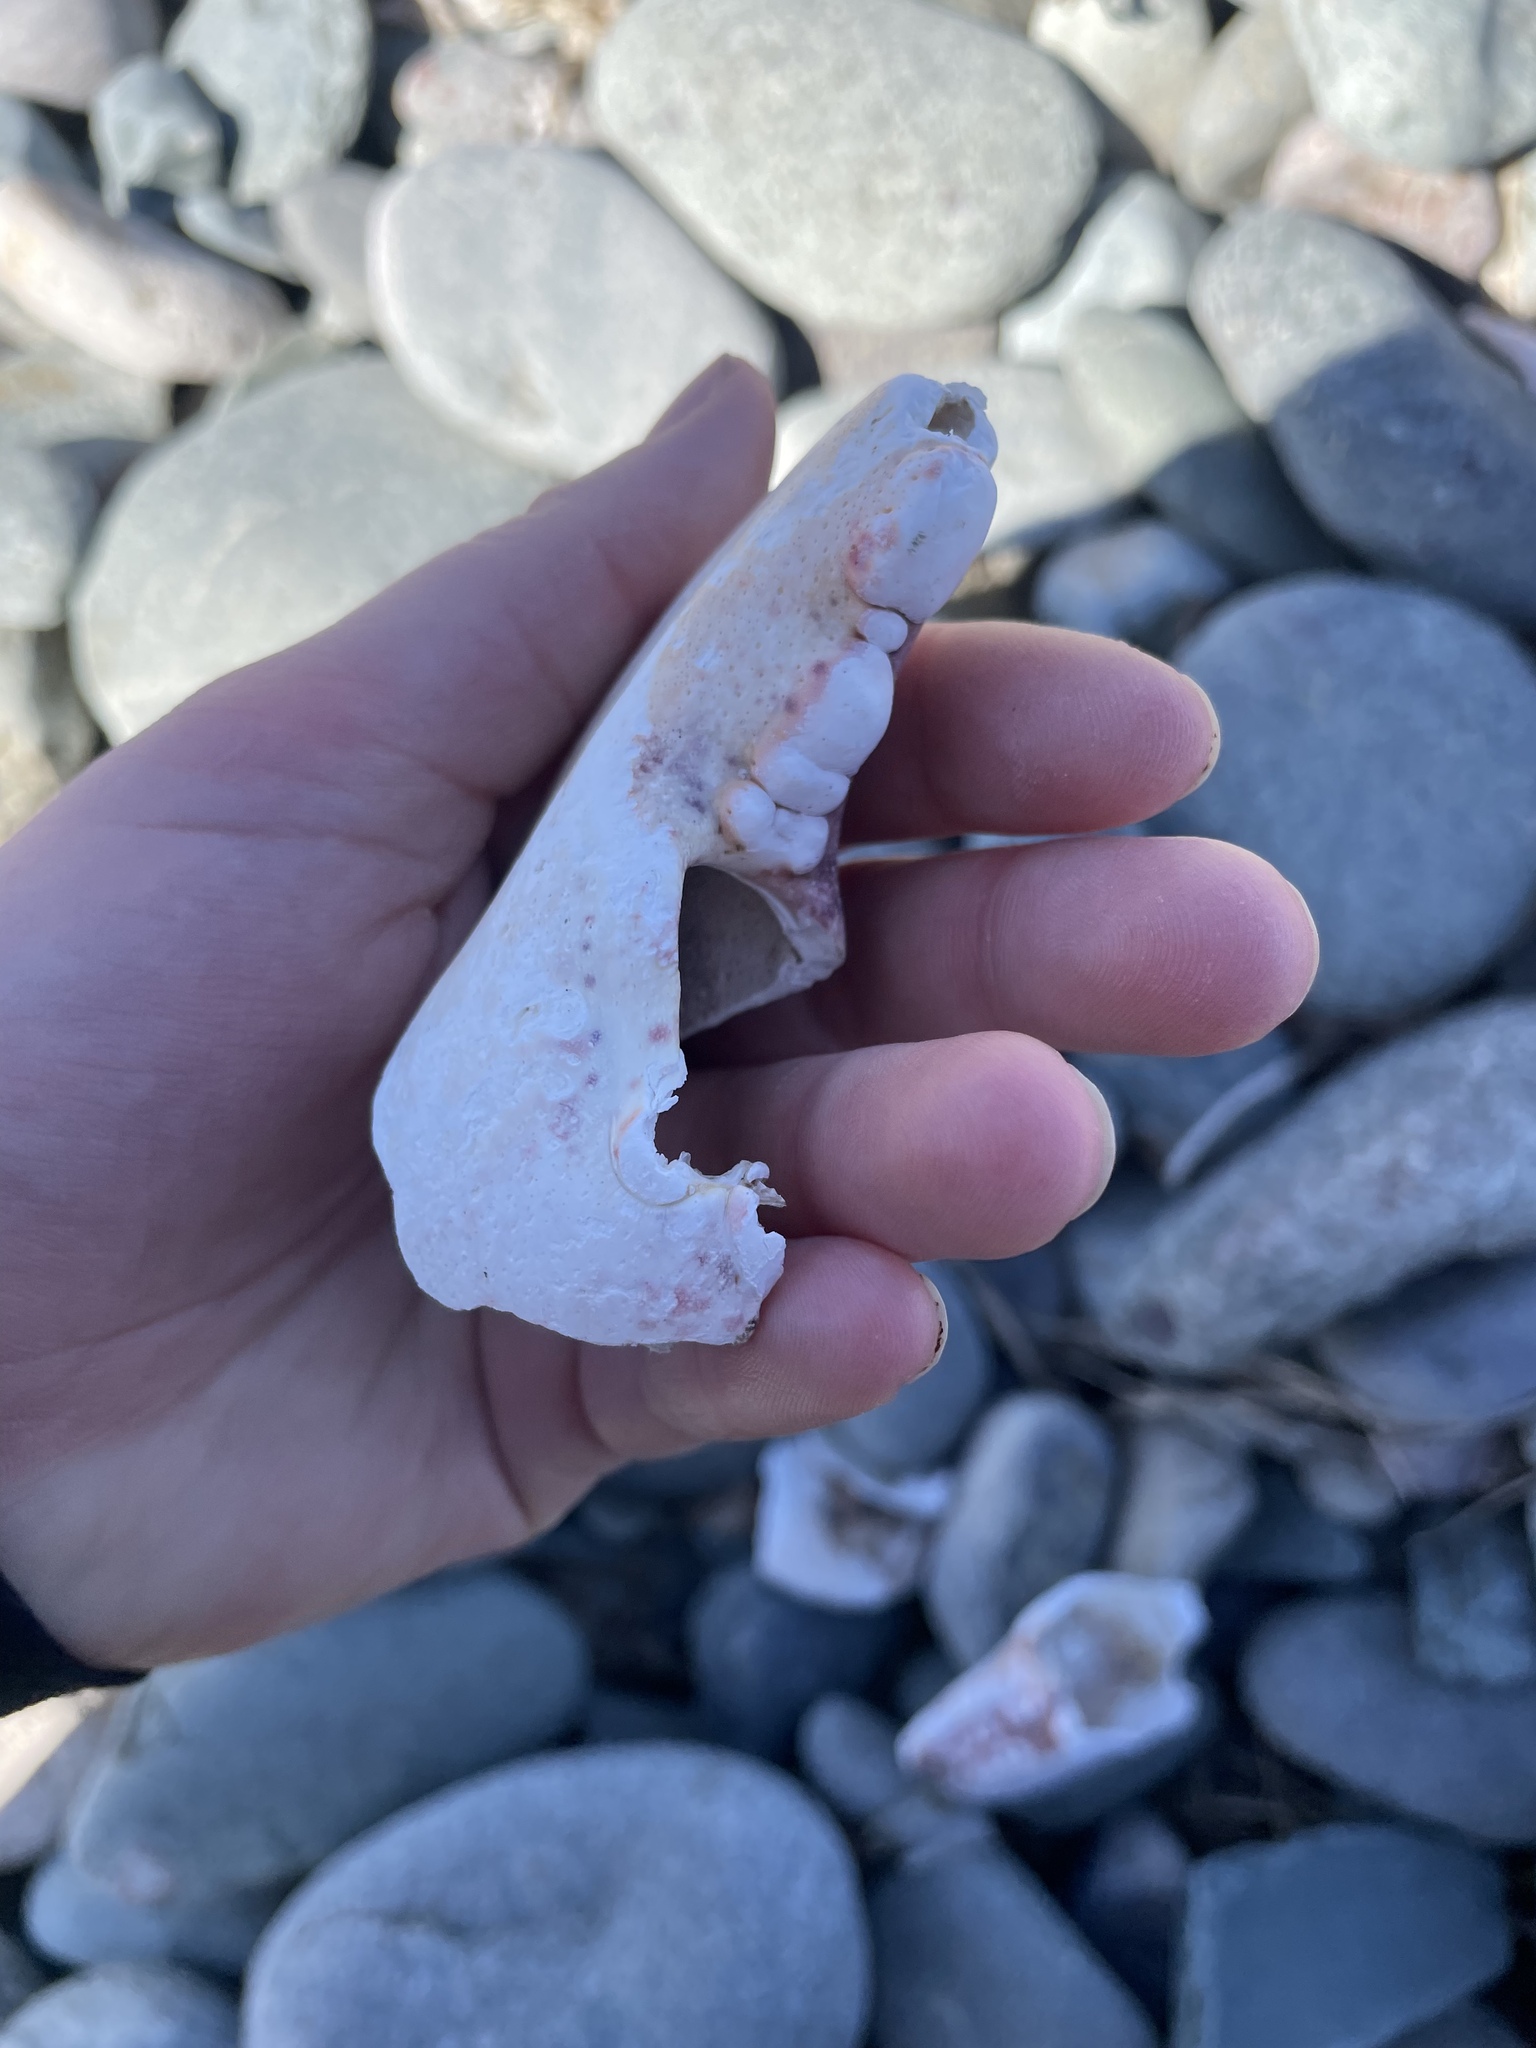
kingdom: Animalia
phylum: Arthropoda
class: Malacostraca
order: Decapoda
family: Nephropidae
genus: Homarus
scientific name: Homarus americanus
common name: American lobster
